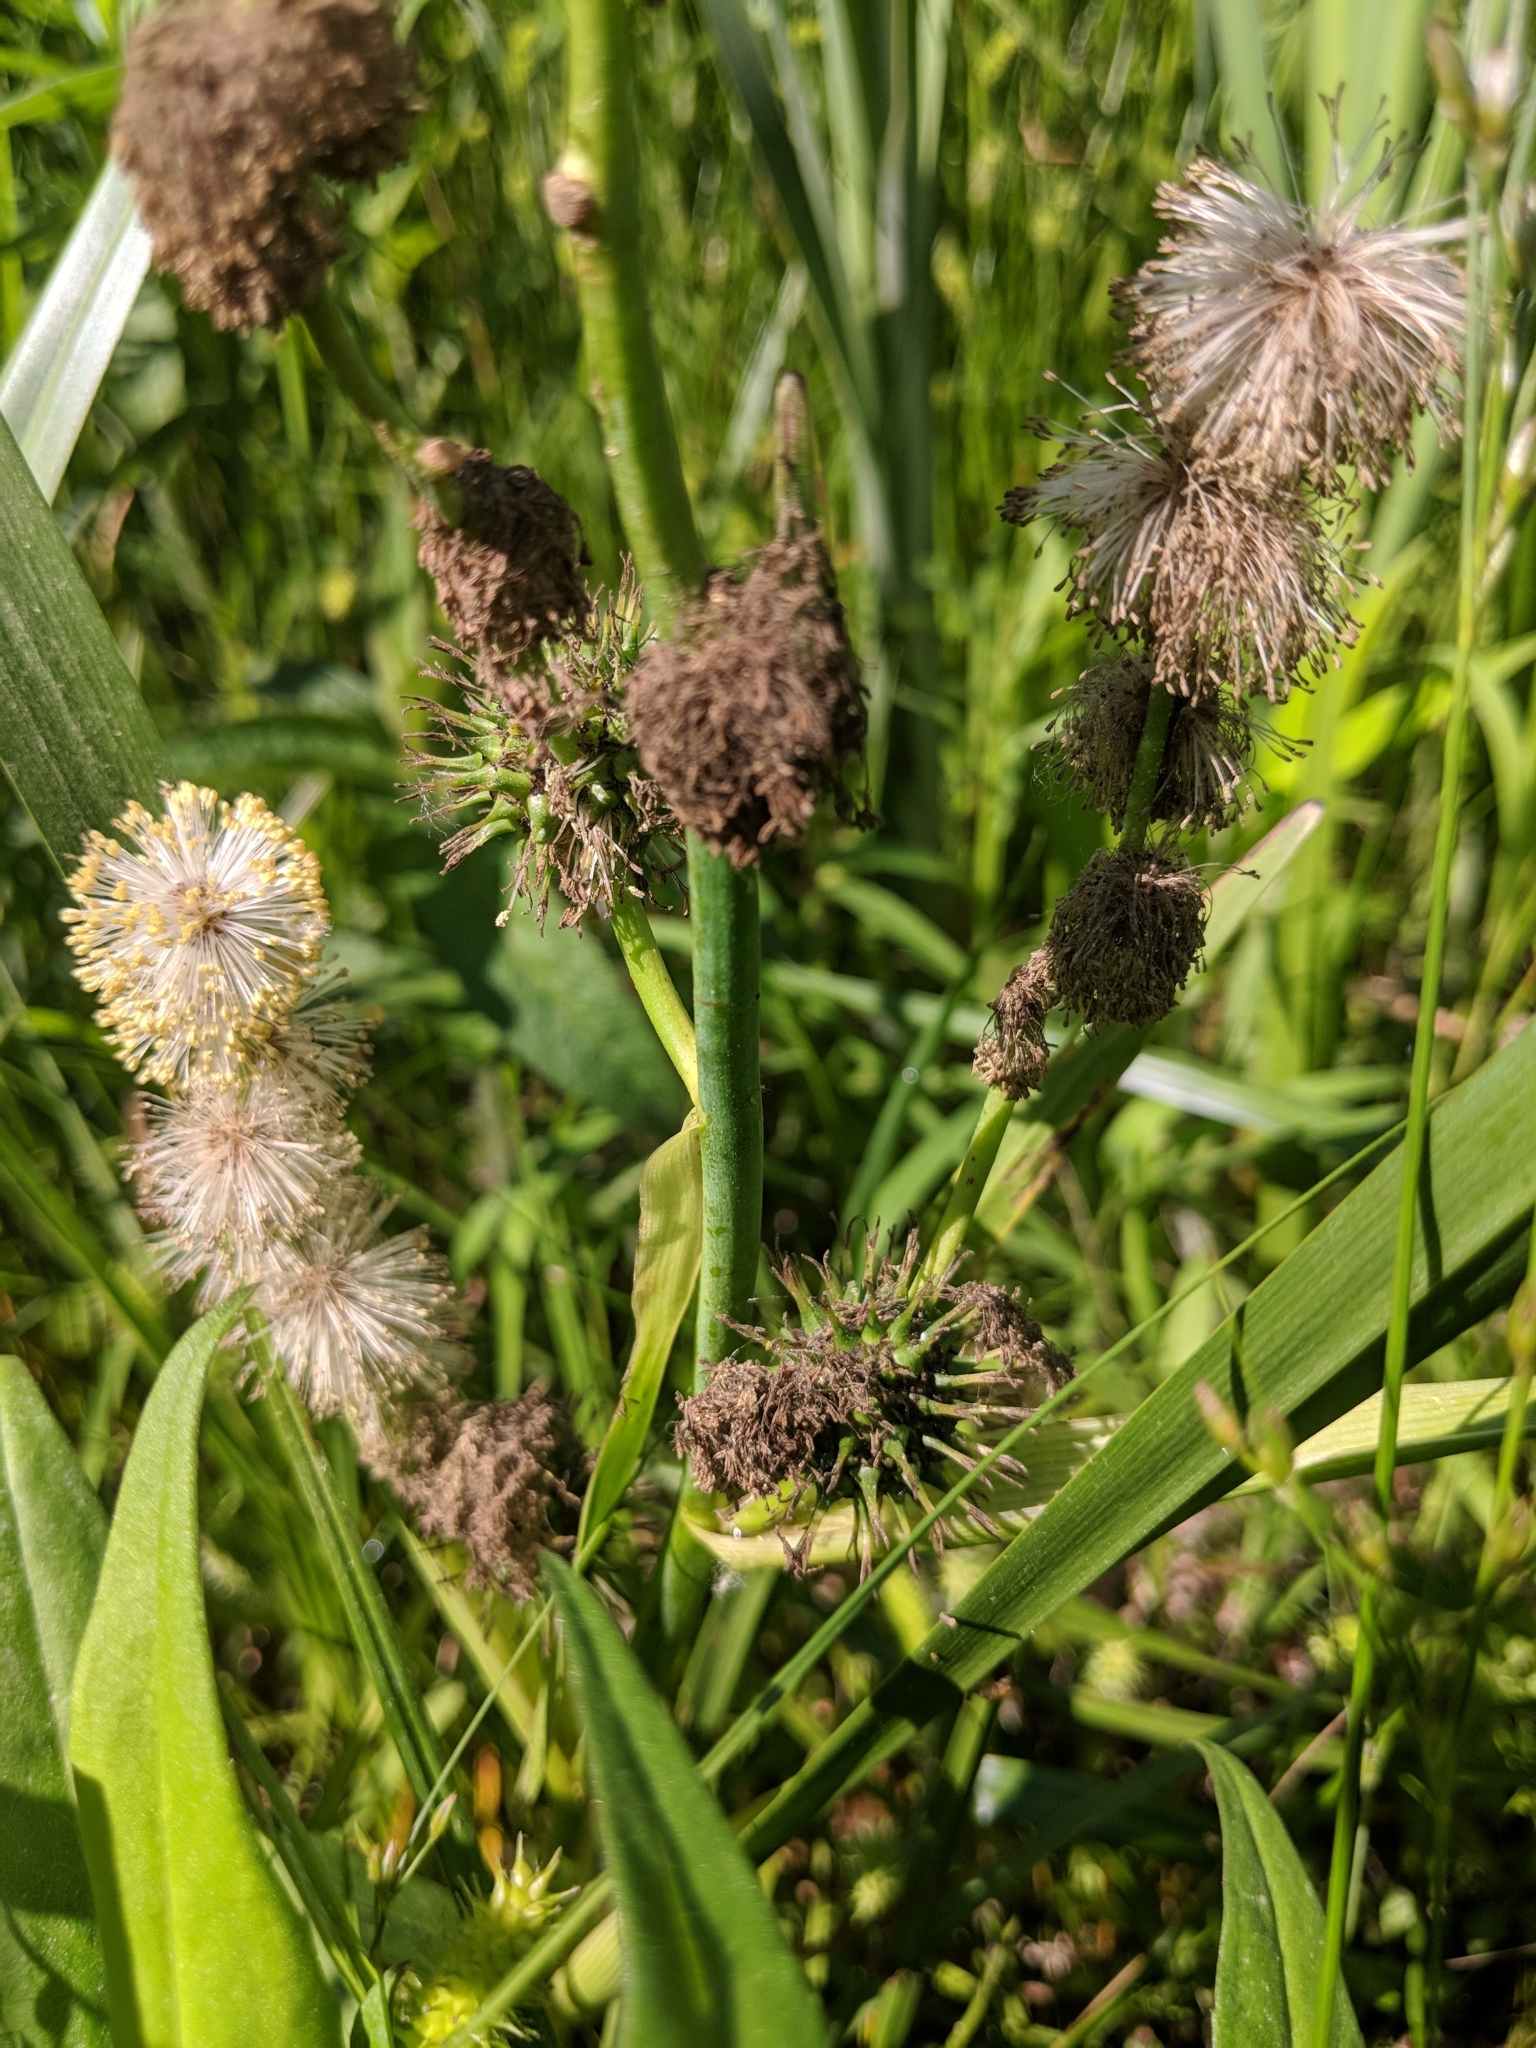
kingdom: Plantae
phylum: Tracheophyta
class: Liliopsida
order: Poales
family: Typhaceae
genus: Sparganium
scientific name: Sparganium eurycarpum
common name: Broad-fruited burreed
